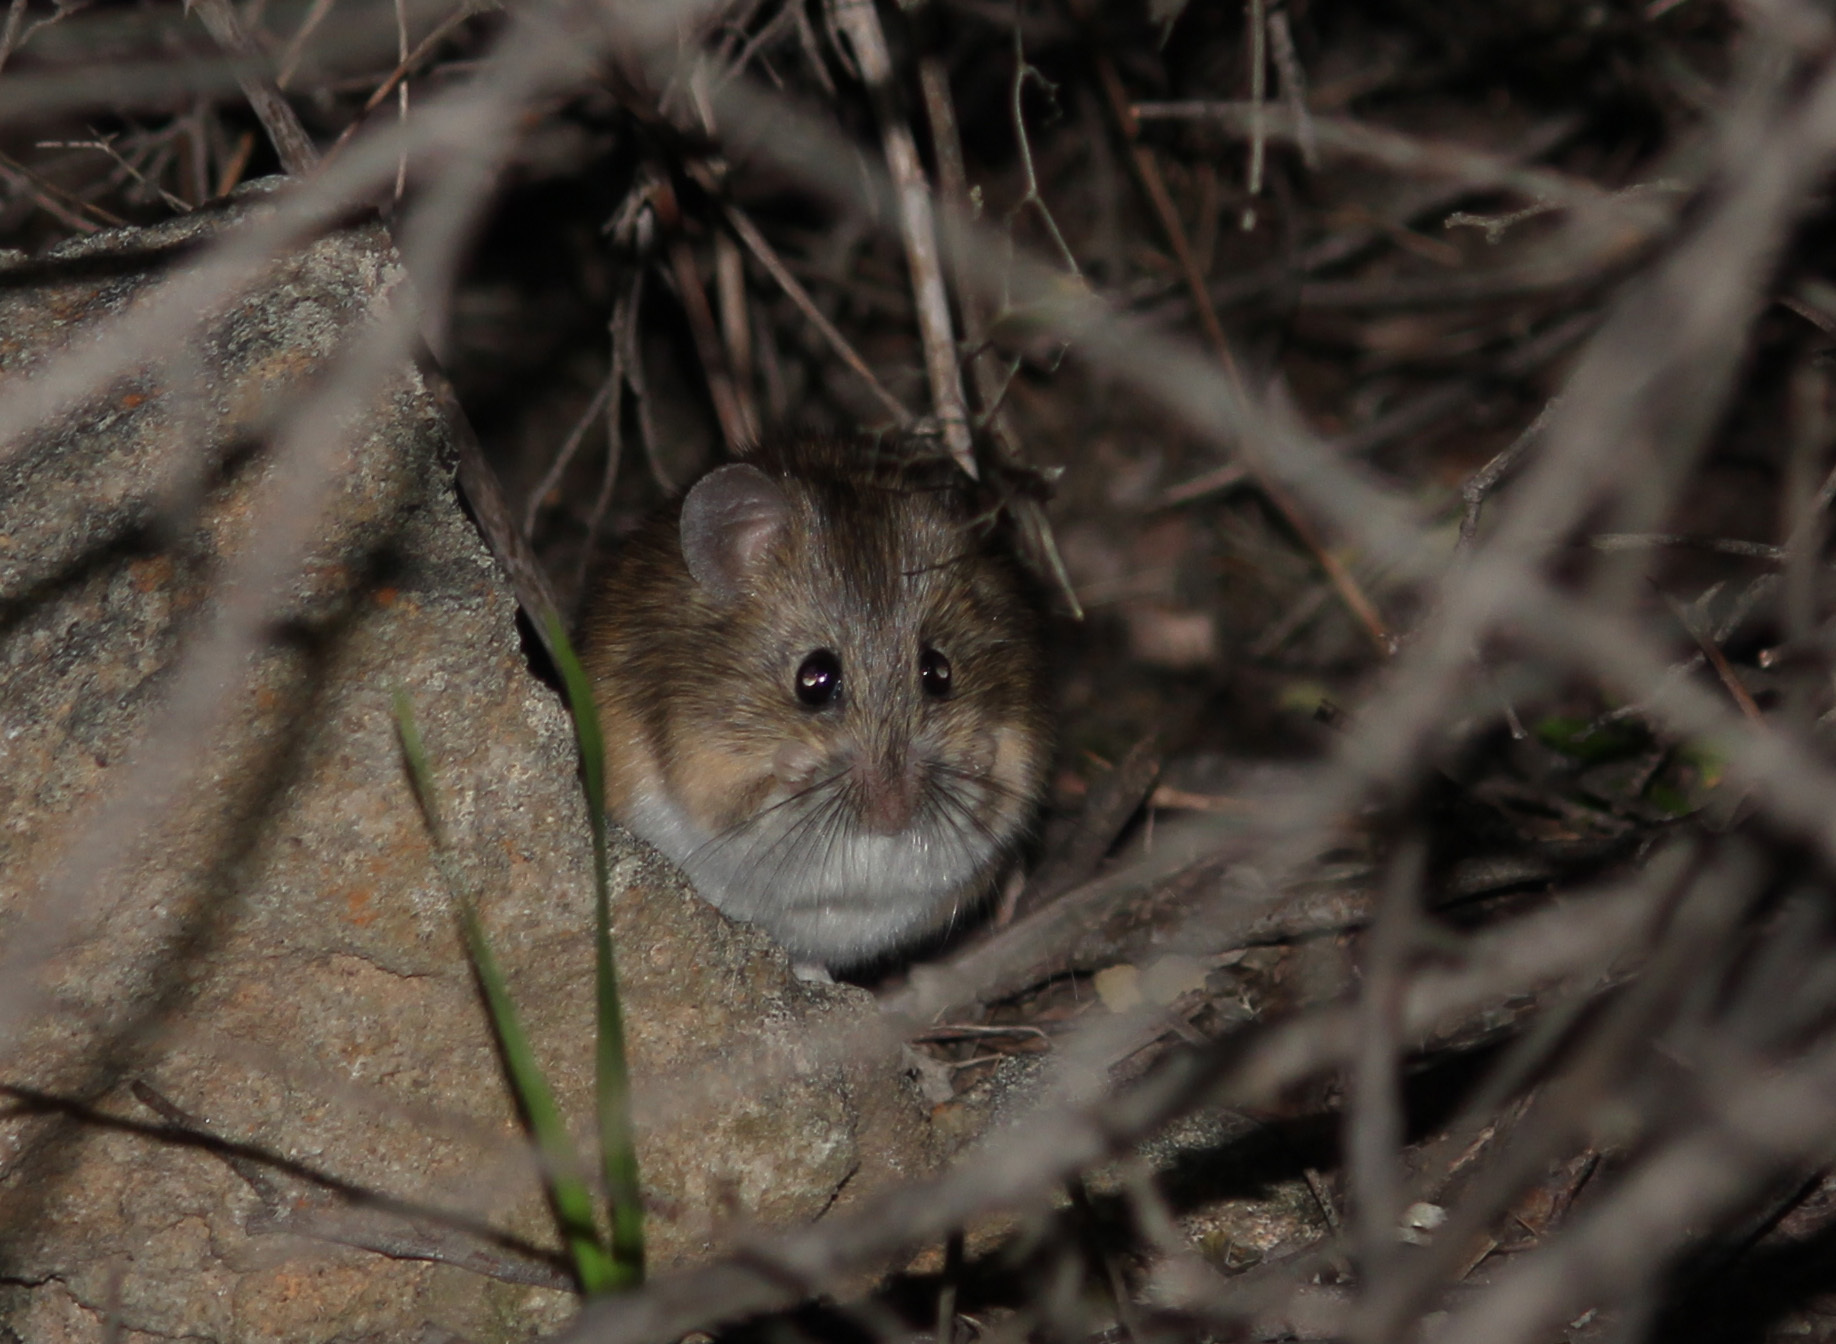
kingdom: Animalia
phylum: Chordata
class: Mammalia
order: Rodentia
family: Muridae
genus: Micaelamys
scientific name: Micaelamys namaquensis
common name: Namaqua micaelamys
